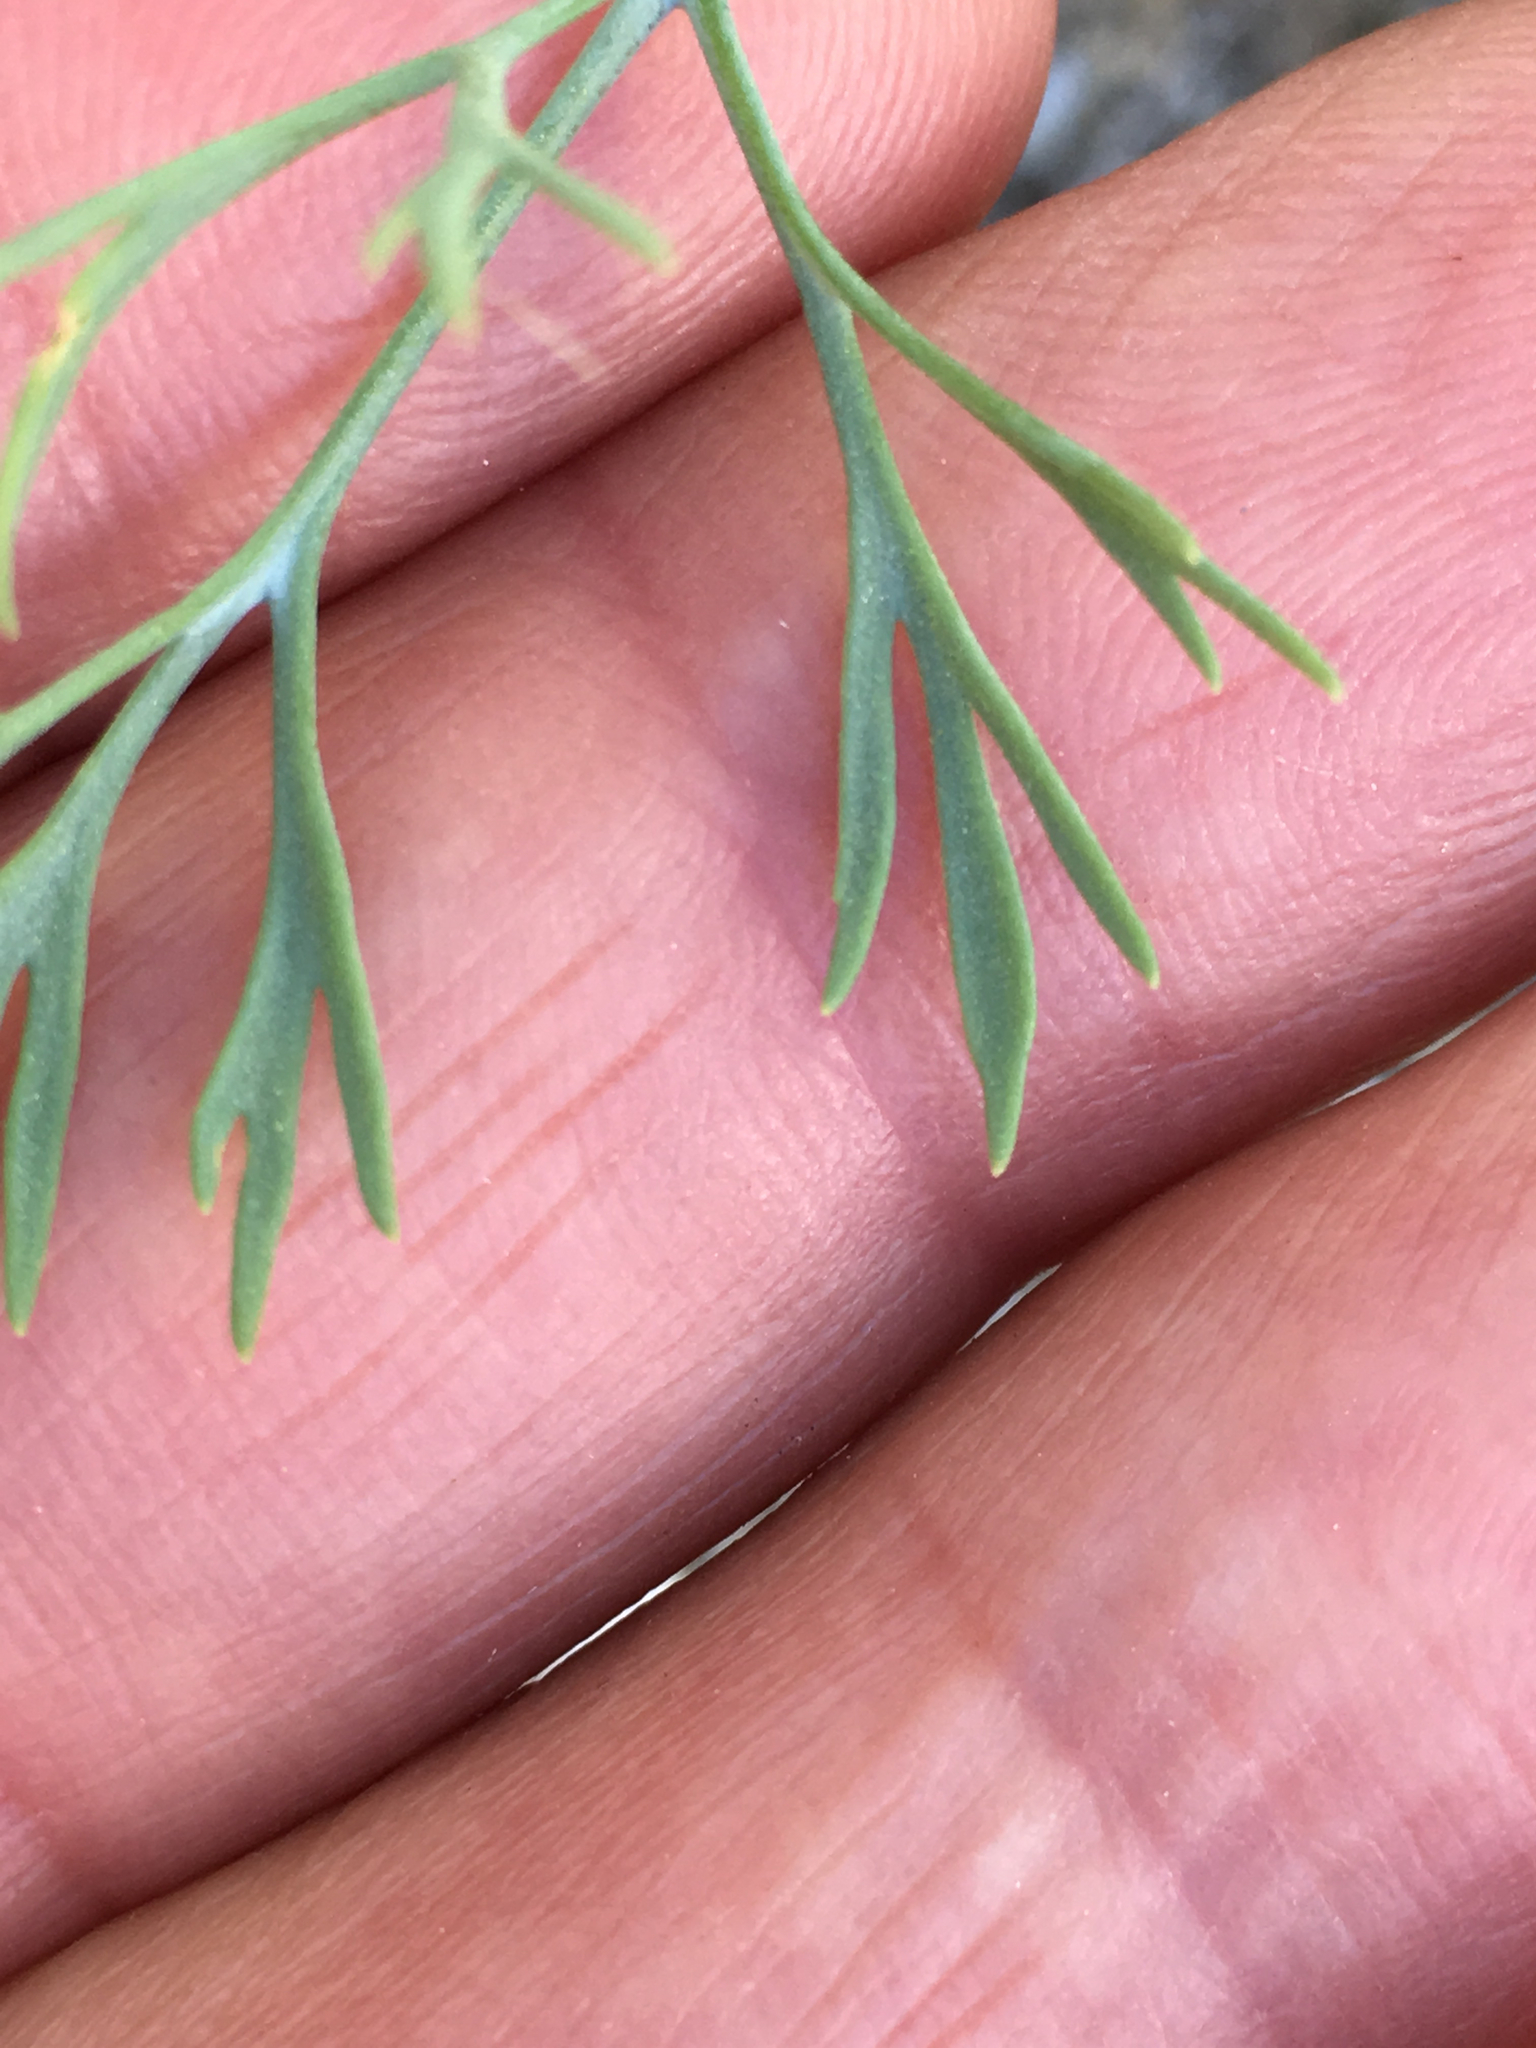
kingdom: Plantae
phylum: Tracheophyta
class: Magnoliopsida
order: Ranunculales
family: Papaveraceae
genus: Eschscholzia
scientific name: Eschscholzia parishii
